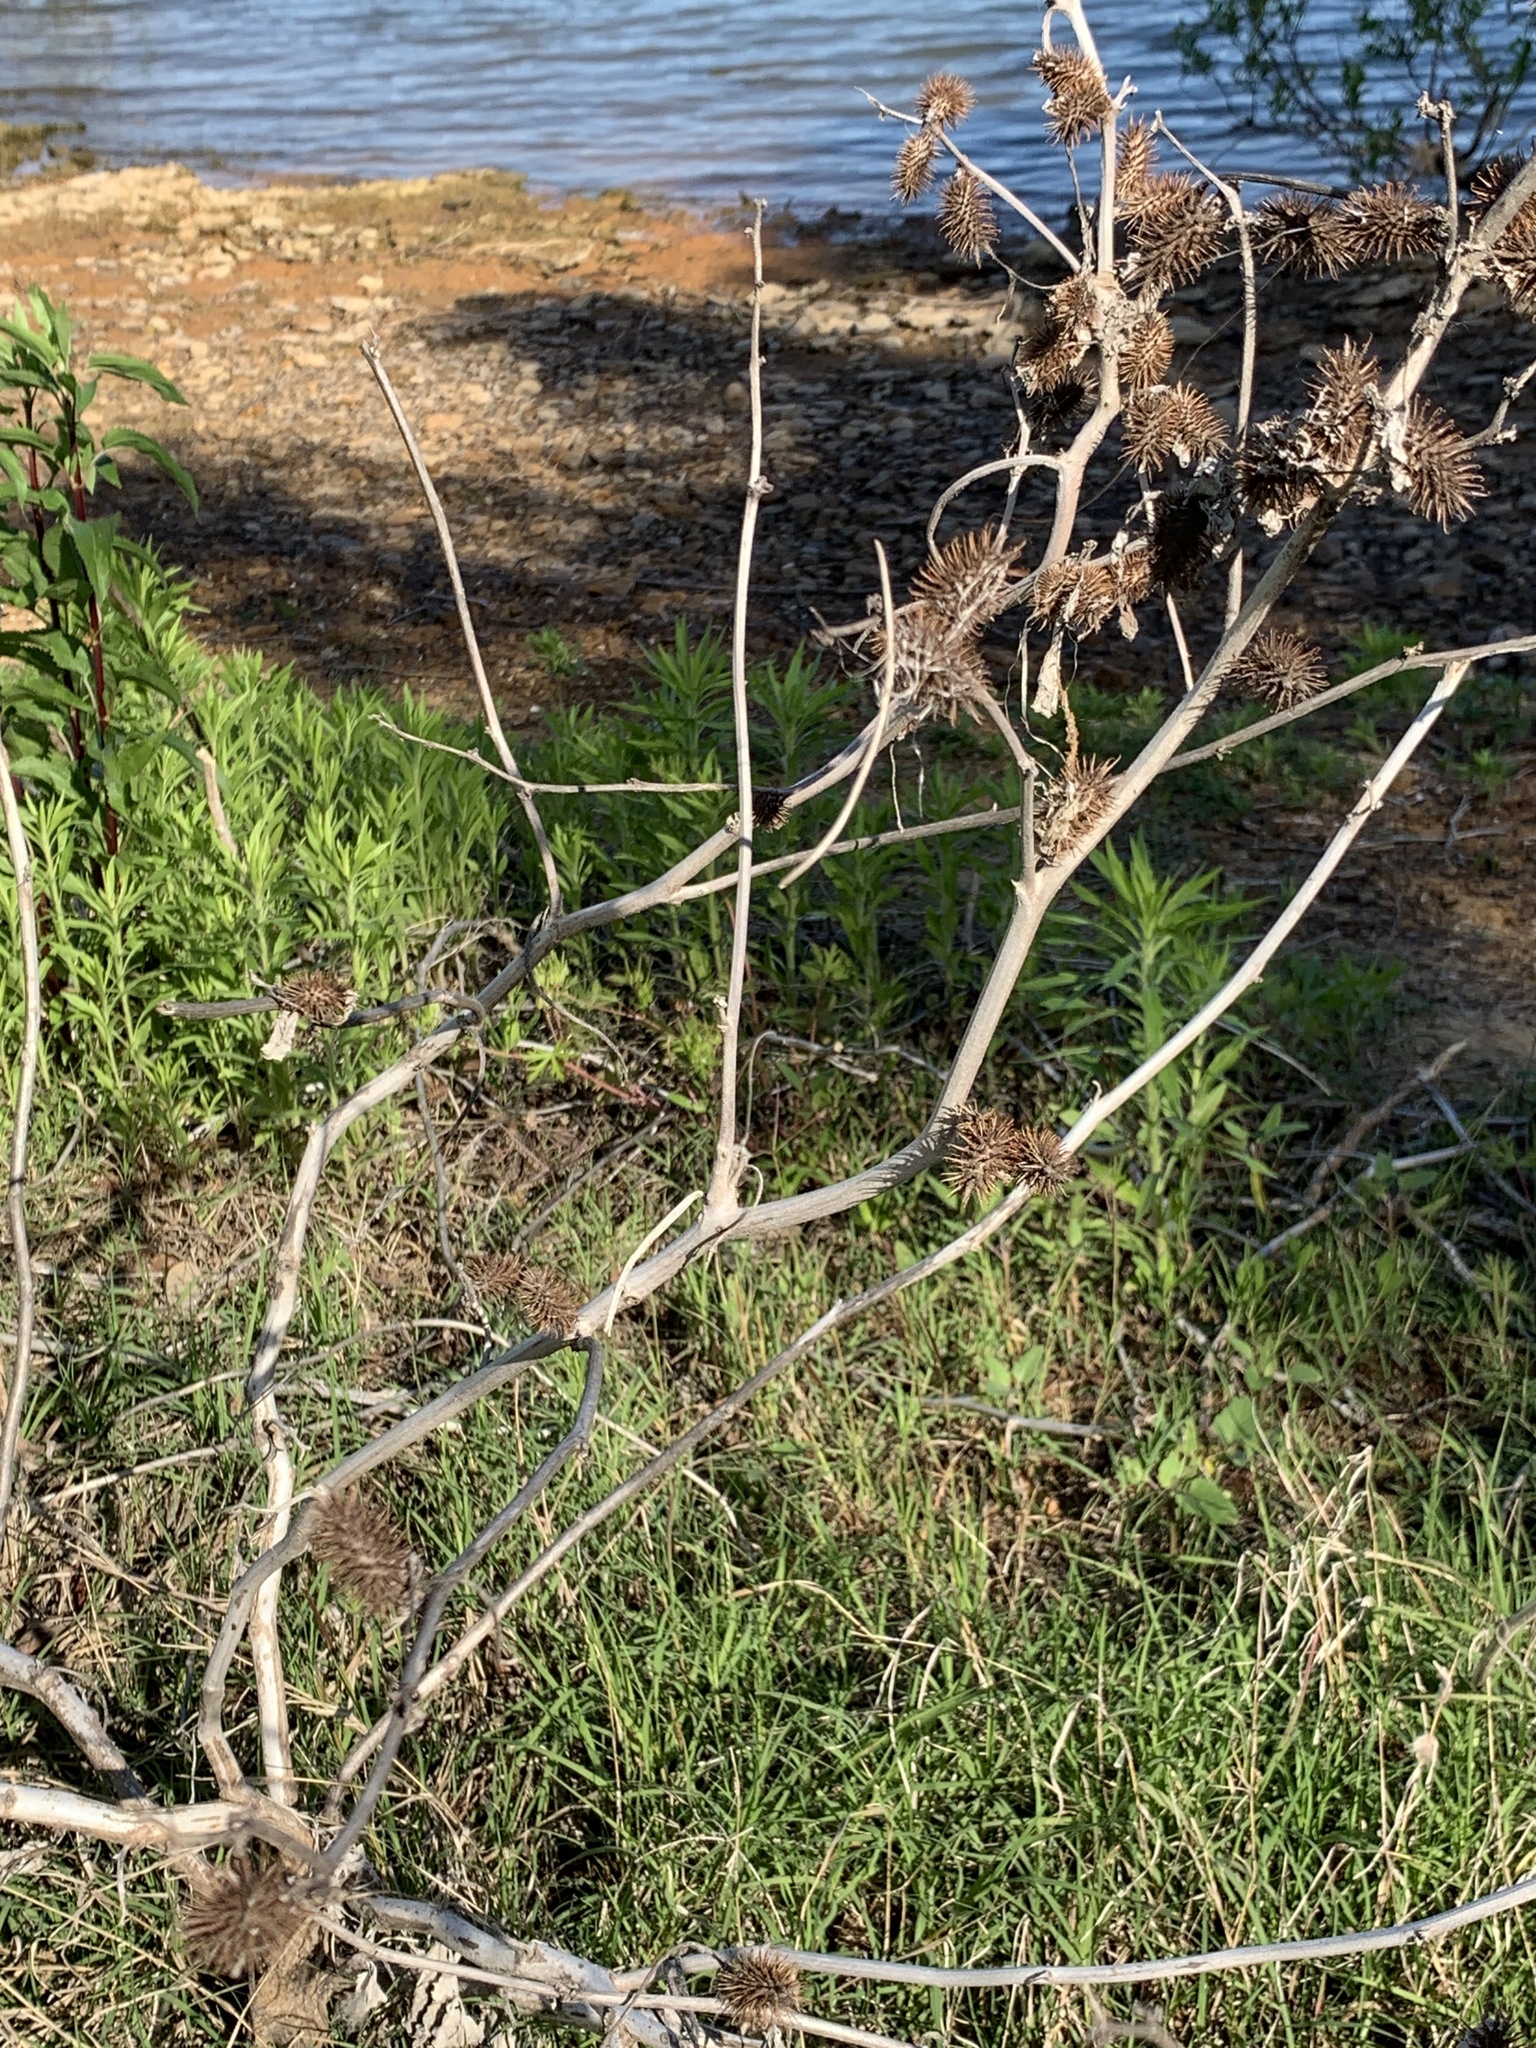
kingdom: Plantae
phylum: Tracheophyta
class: Magnoliopsida
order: Asterales
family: Asteraceae
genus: Xanthium
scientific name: Xanthium strumarium
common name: Rough cocklebur
